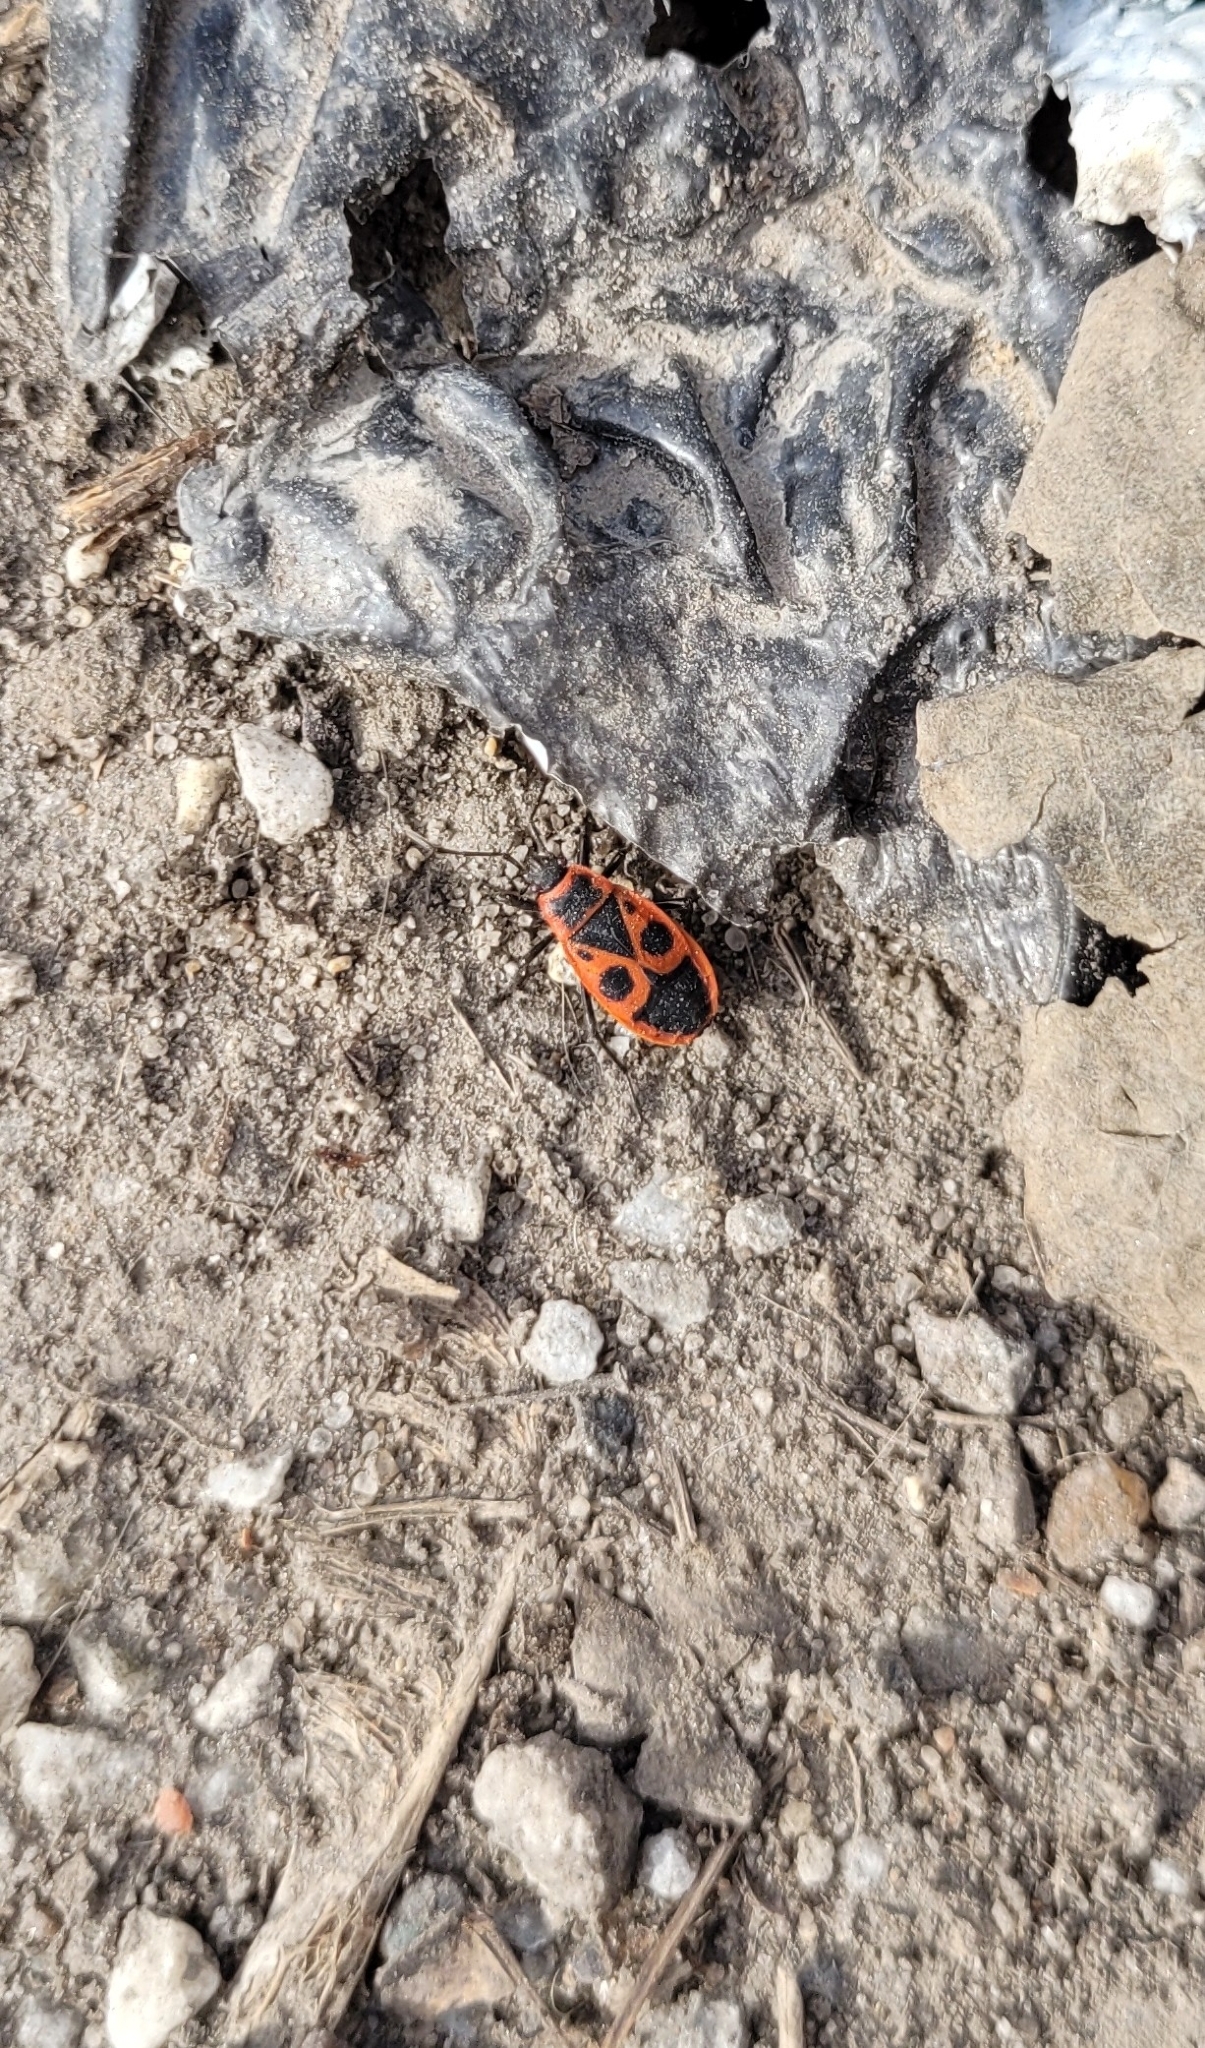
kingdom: Animalia
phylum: Arthropoda
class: Insecta
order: Hemiptera
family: Pyrrhocoridae
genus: Pyrrhocoris
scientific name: Pyrrhocoris apterus
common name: Firebug
